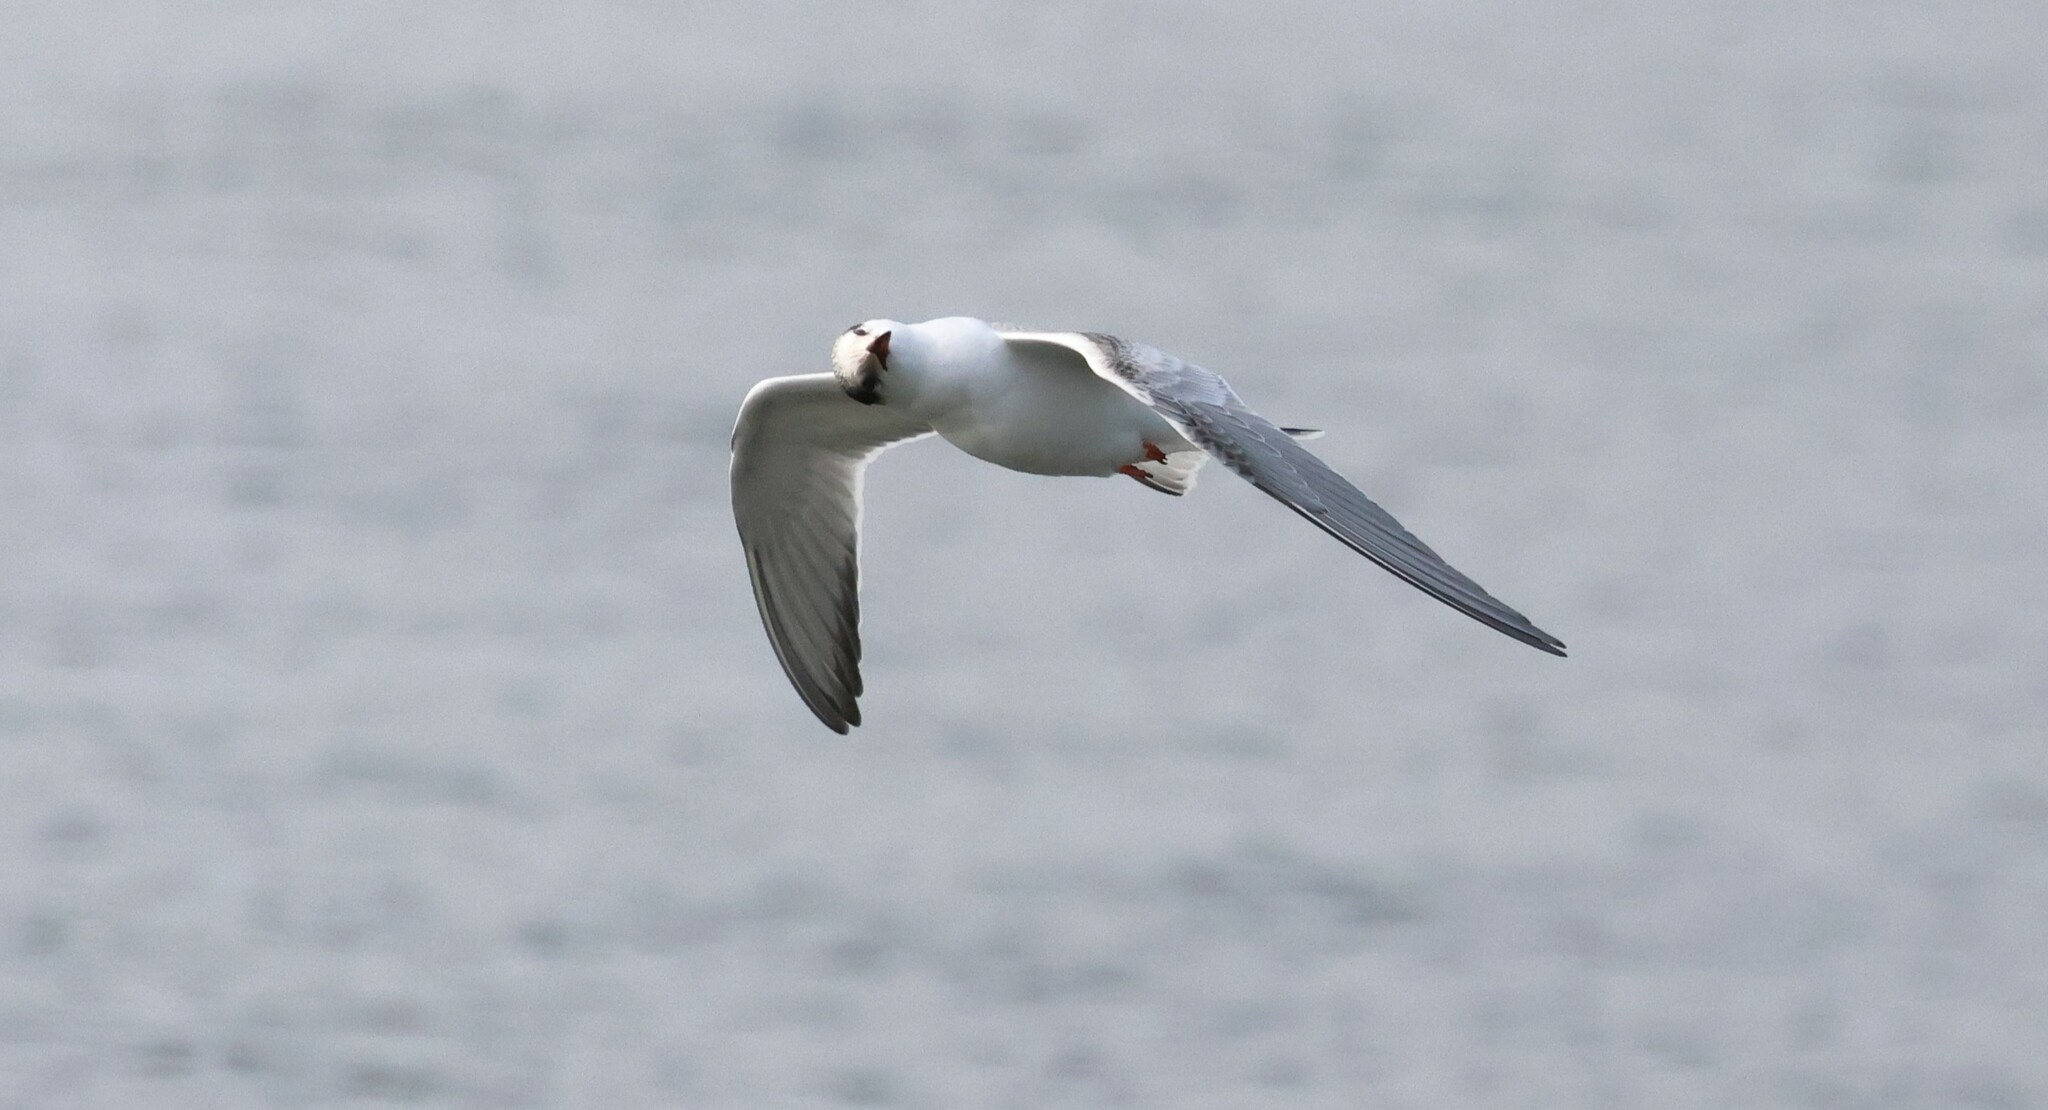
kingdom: Animalia
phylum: Chordata
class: Aves
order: Charadriiformes
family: Laridae
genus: Sterna
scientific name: Sterna hirundo
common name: Common tern
